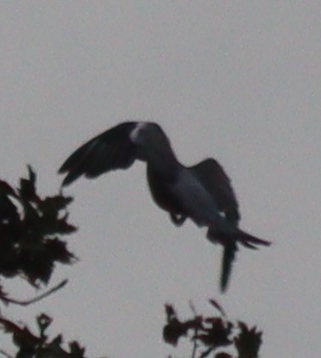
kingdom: Animalia
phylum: Chordata
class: Aves
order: Columbiformes
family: Columbidae
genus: Columba
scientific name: Columba palumbus
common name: Common wood pigeon
